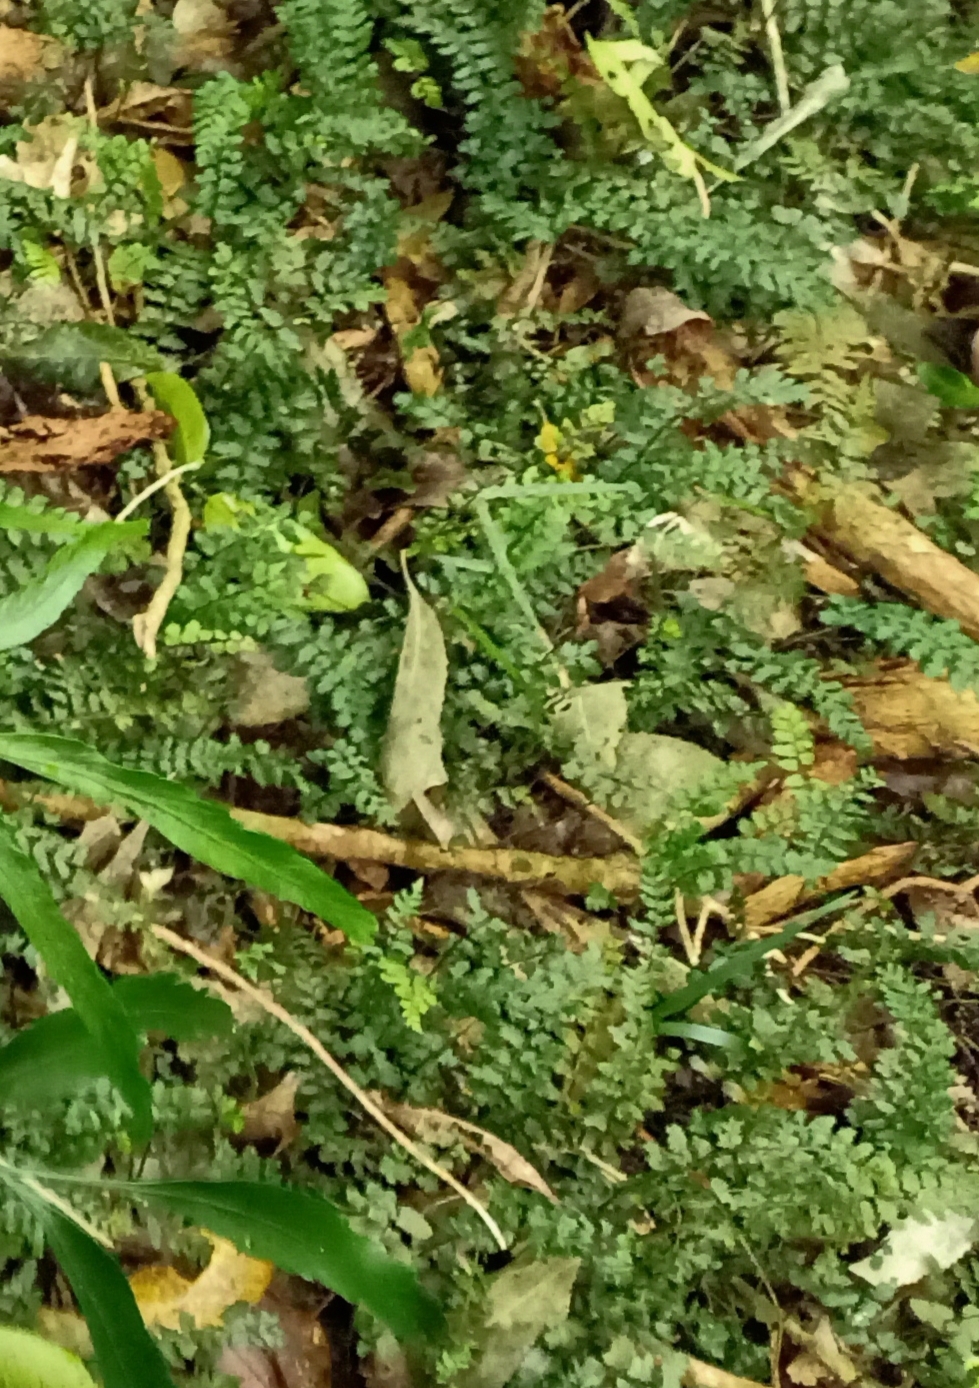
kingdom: Plantae
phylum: Tracheophyta
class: Polypodiopsida
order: Polypodiales
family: Blechnaceae
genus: Icarus
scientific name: Icarus filiformis
